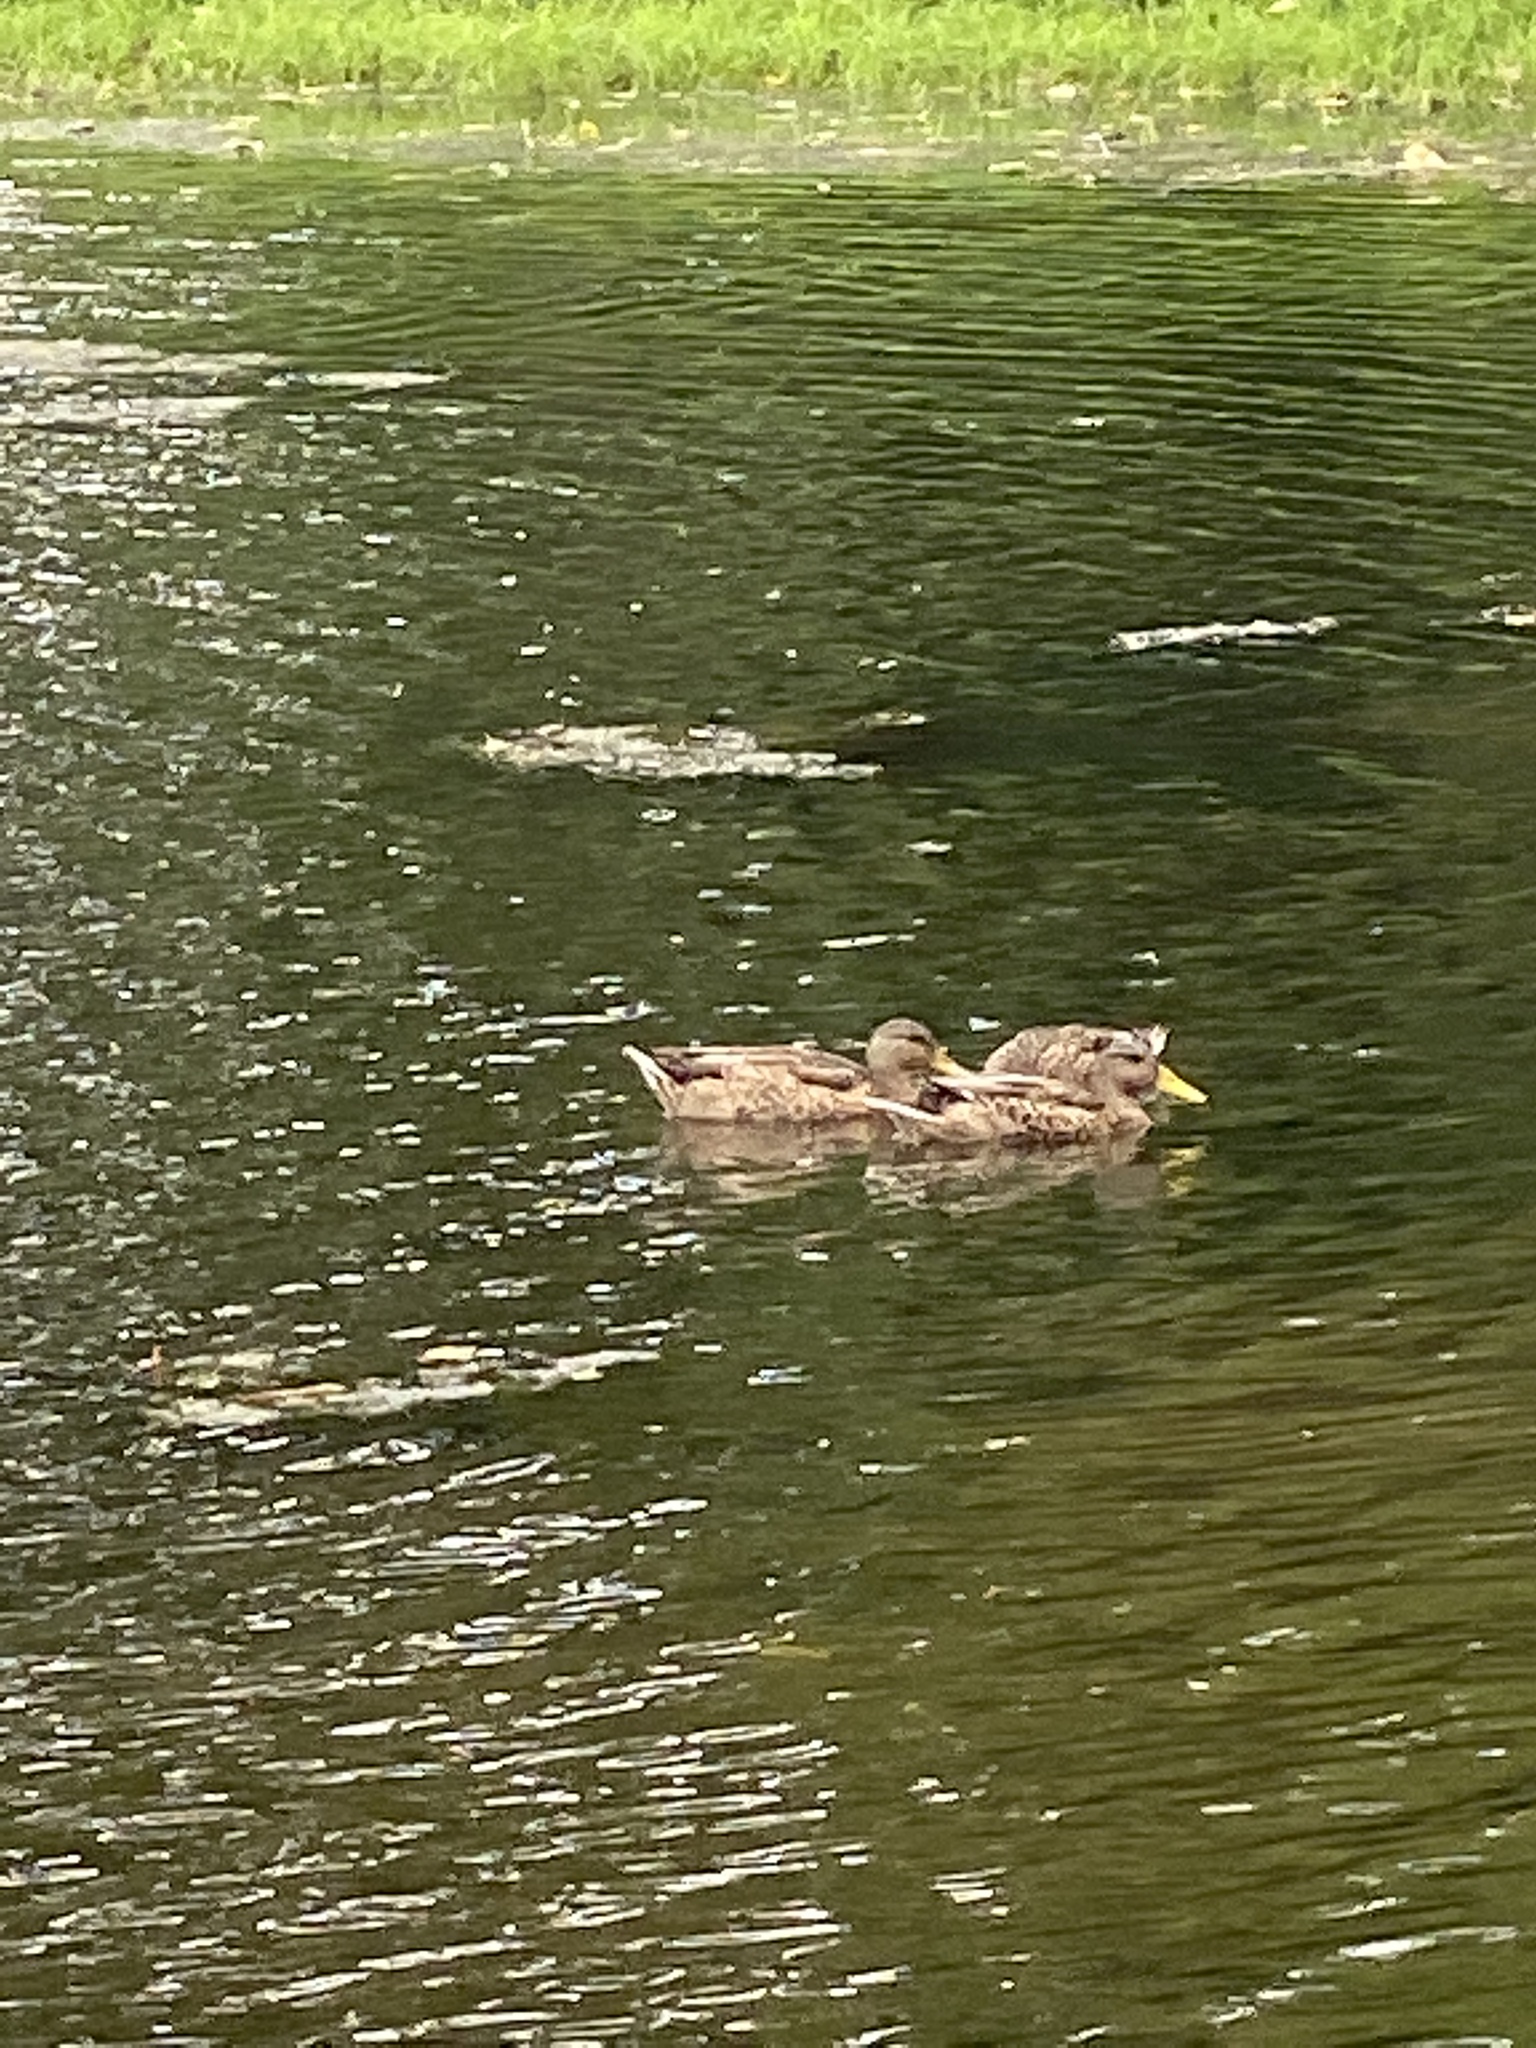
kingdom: Animalia
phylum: Chordata
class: Aves
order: Anseriformes
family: Anatidae
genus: Anas
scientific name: Anas platyrhynchos
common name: Mallard
